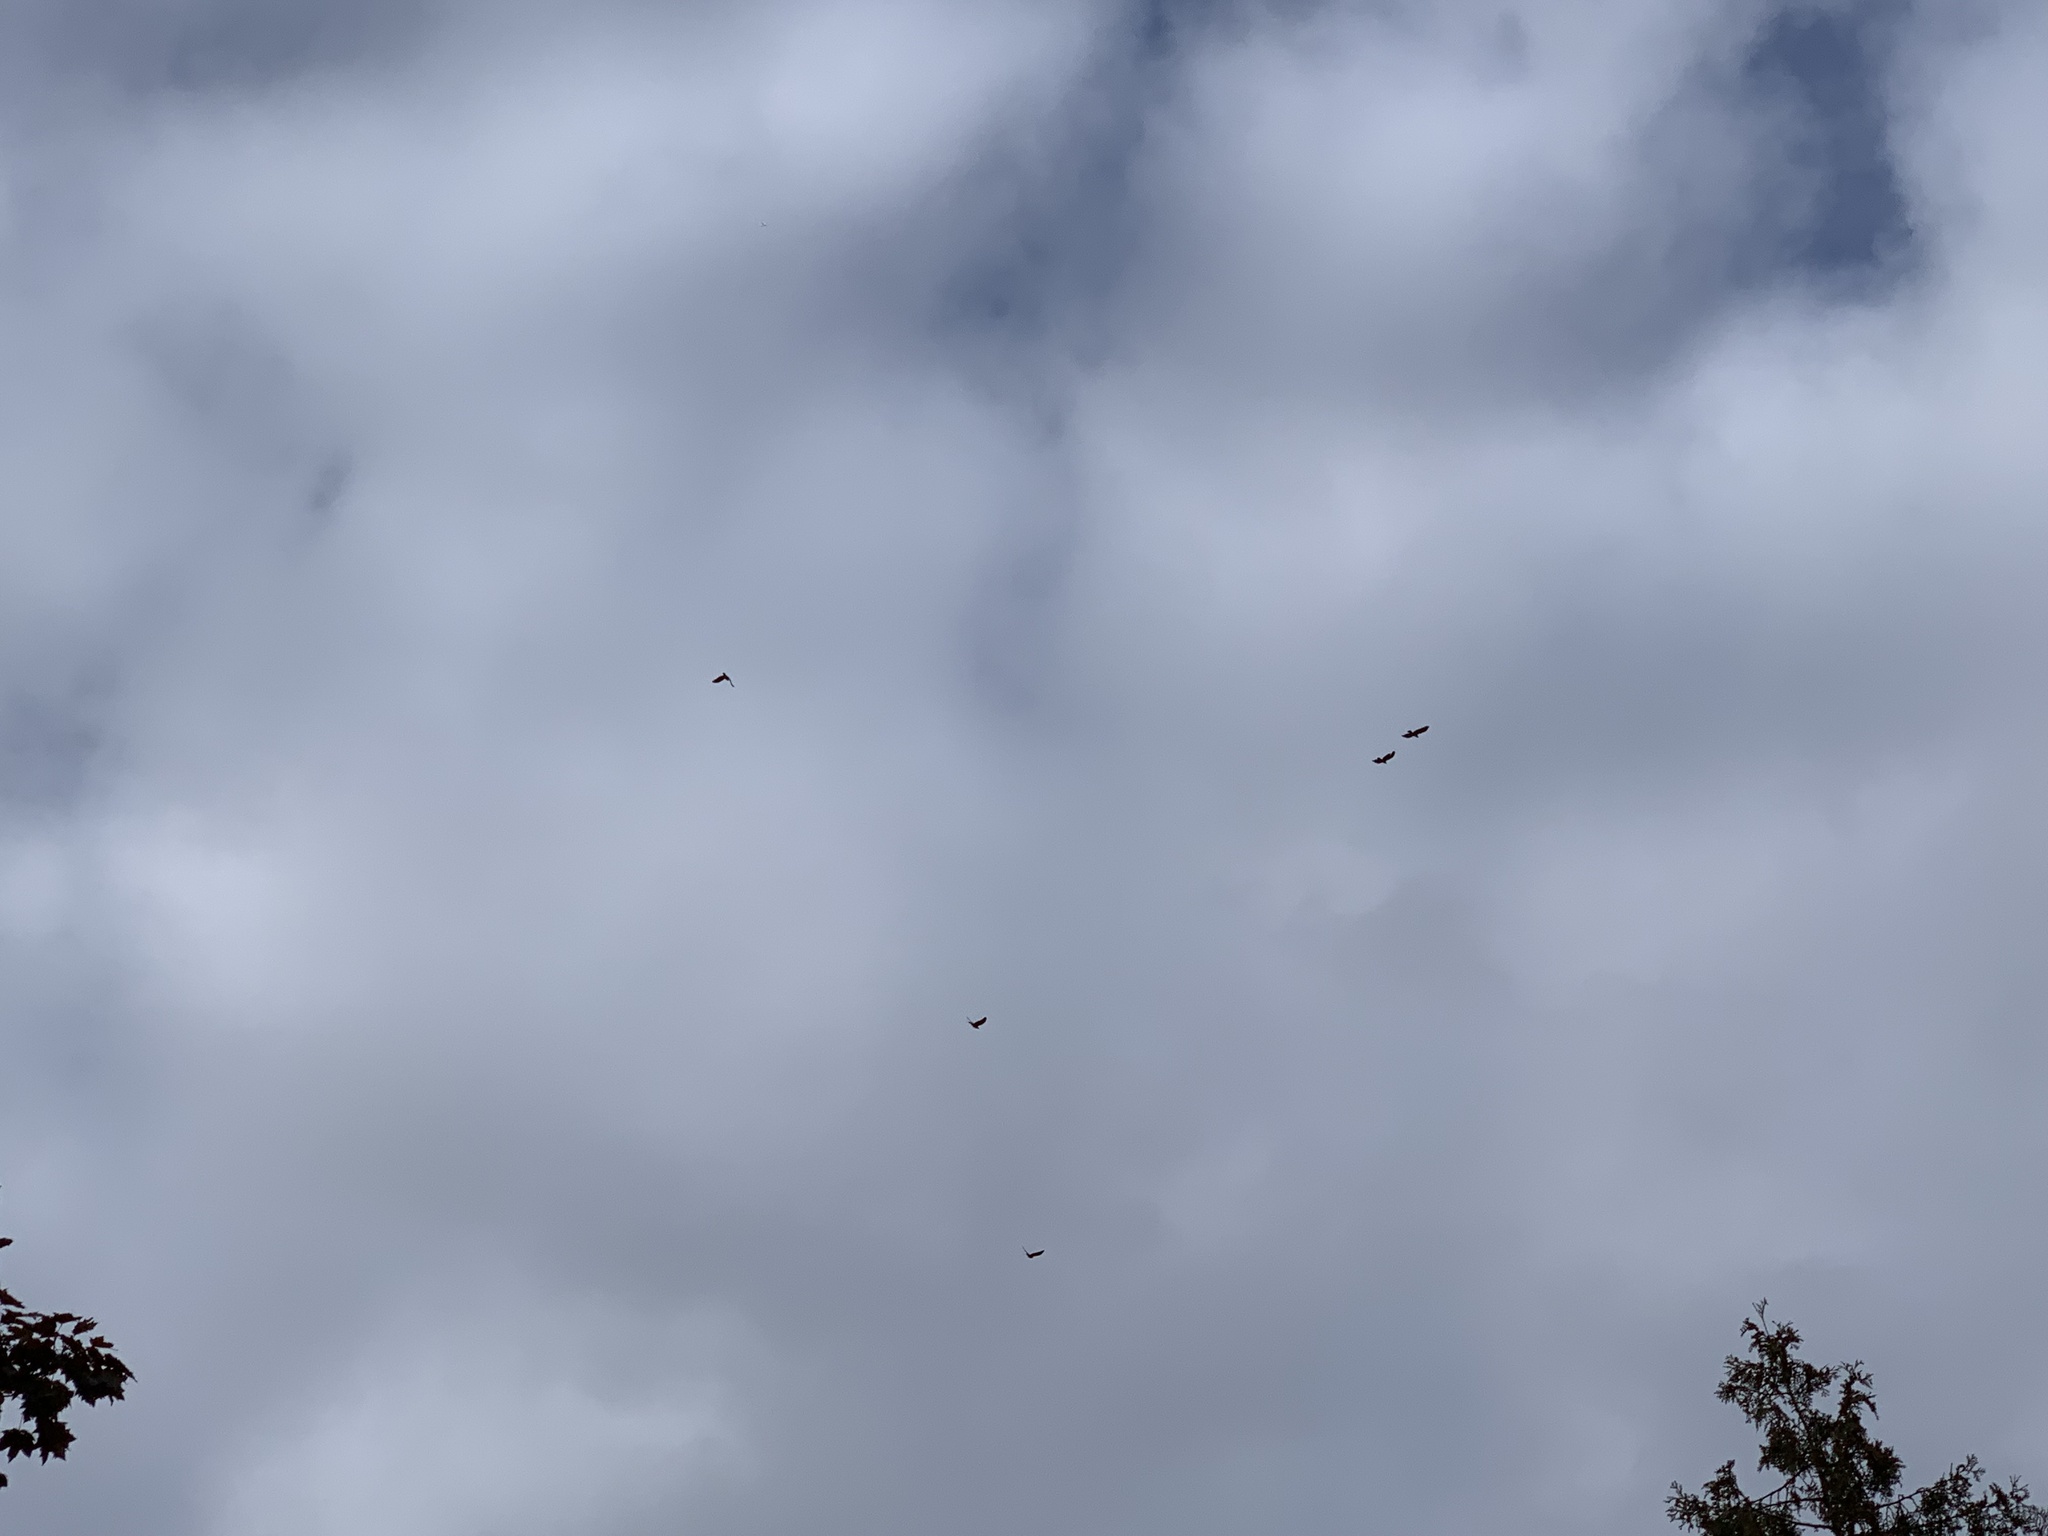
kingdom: Animalia
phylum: Chordata
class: Aves
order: Passeriformes
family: Corvidae
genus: Corvus
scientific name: Corvus brachyrhynchos
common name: American crow
